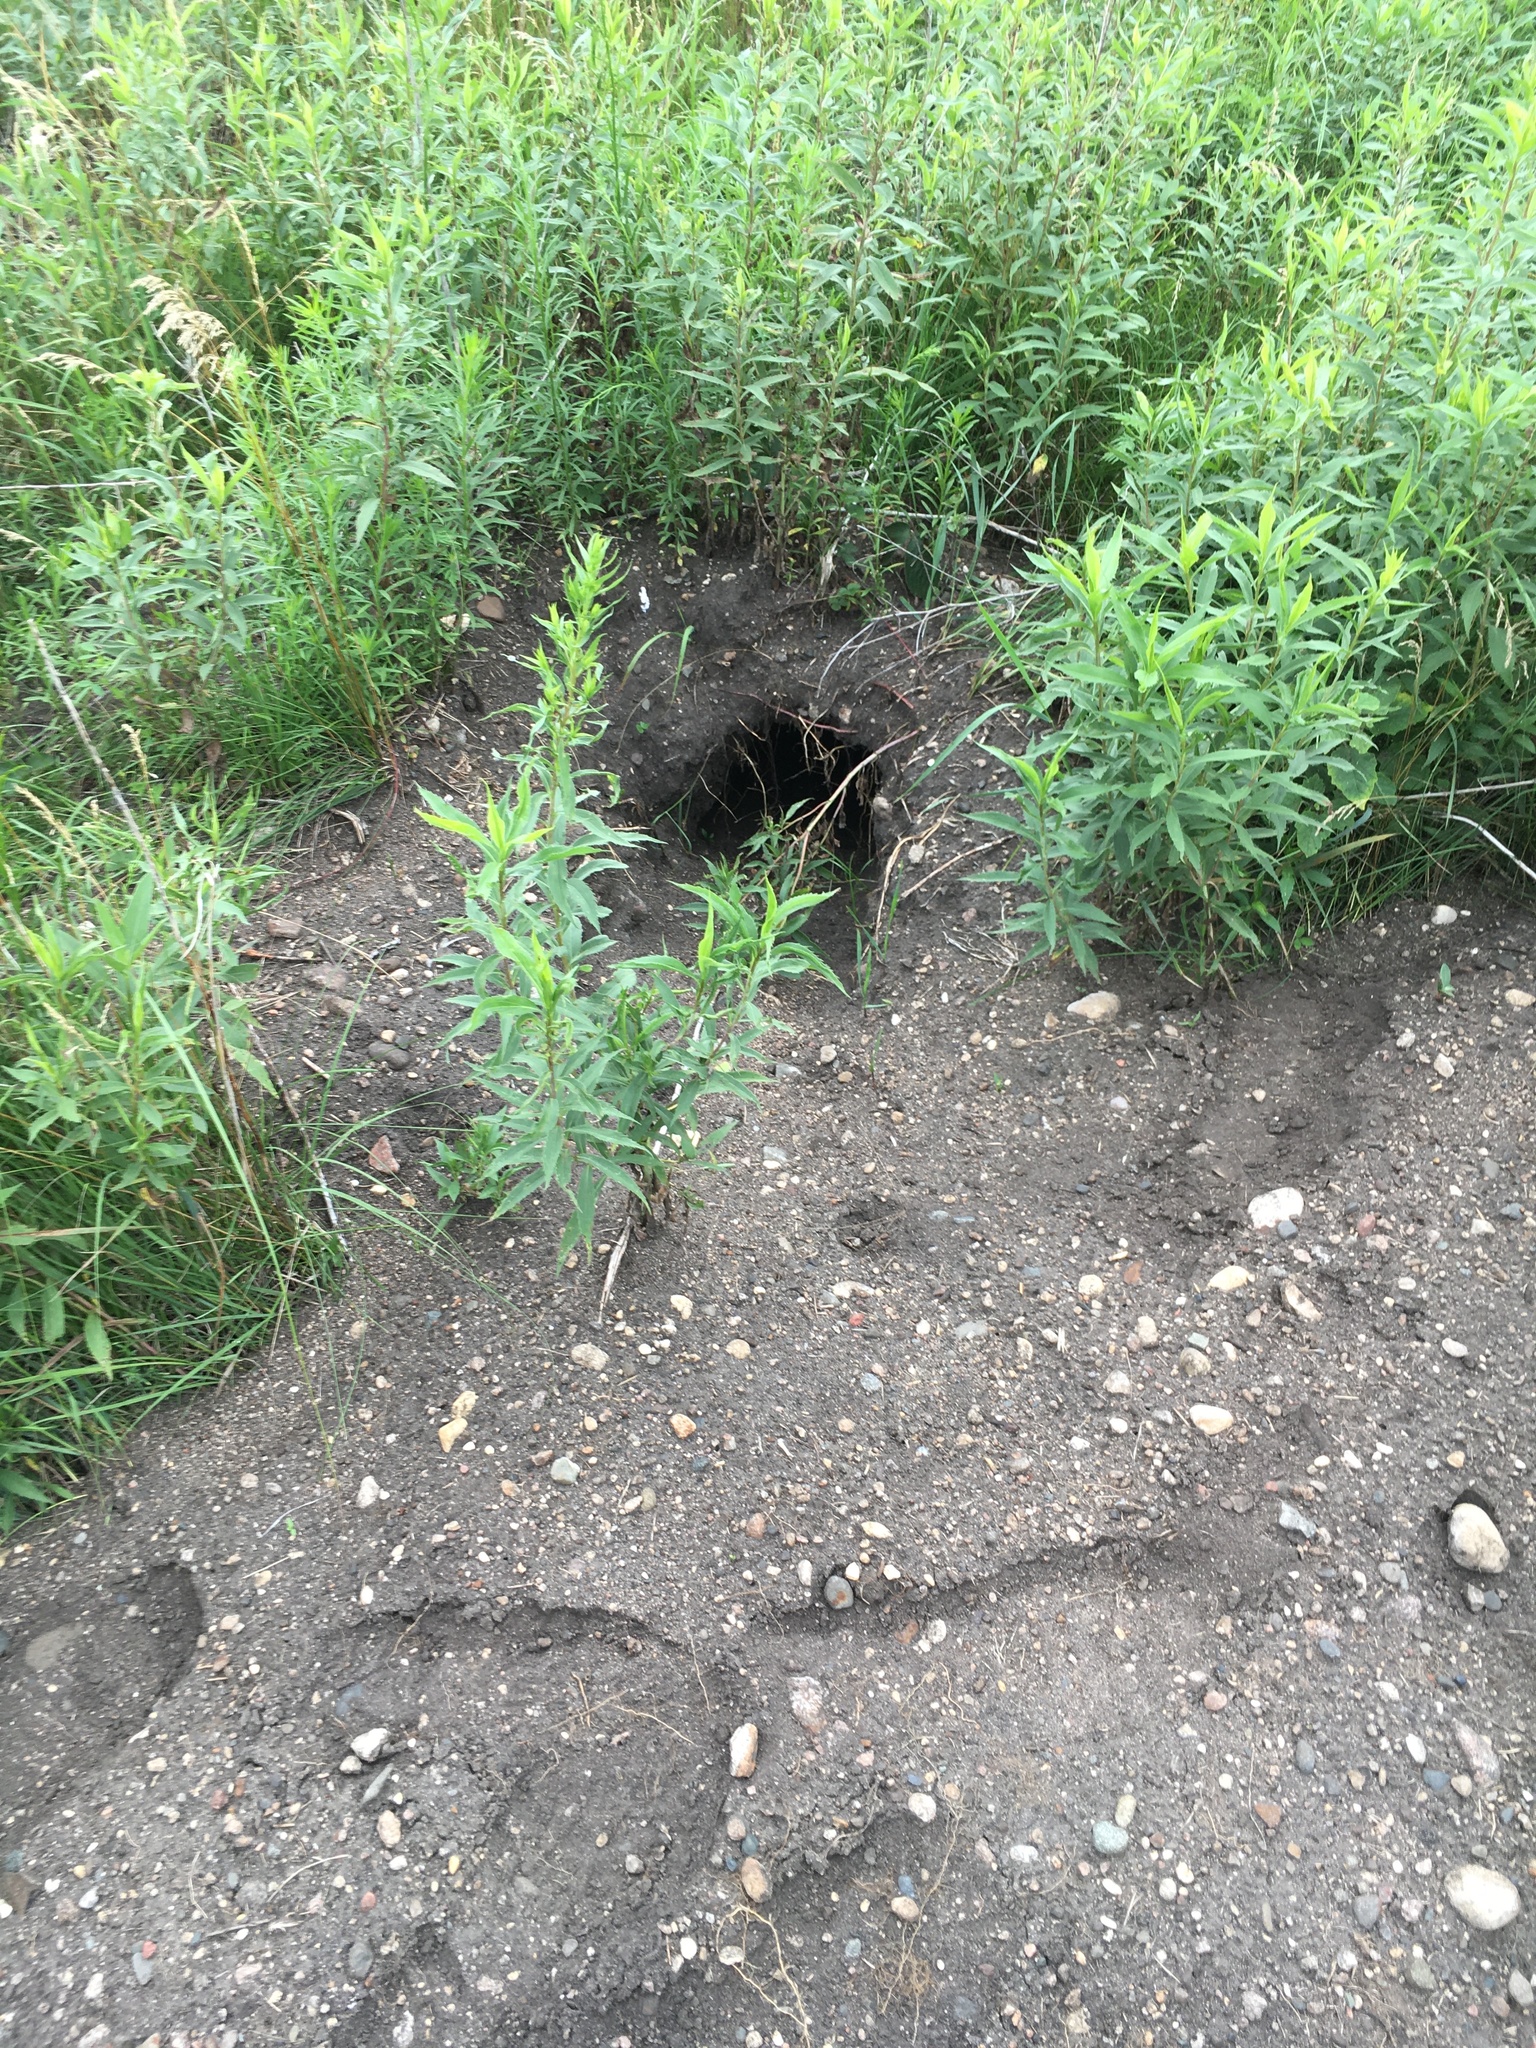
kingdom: Animalia
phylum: Chordata
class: Mammalia
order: Carnivora
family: Mustelidae
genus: Taxidea
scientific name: Taxidea taxus
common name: American badger
